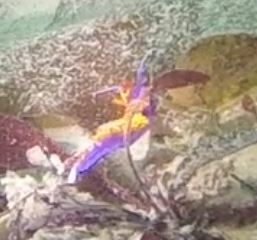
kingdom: Animalia
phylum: Mollusca
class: Gastropoda
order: Nudibranchia
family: Flabellinopsidae
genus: Flabellinopsis
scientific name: Flabellinopsis iodinea
